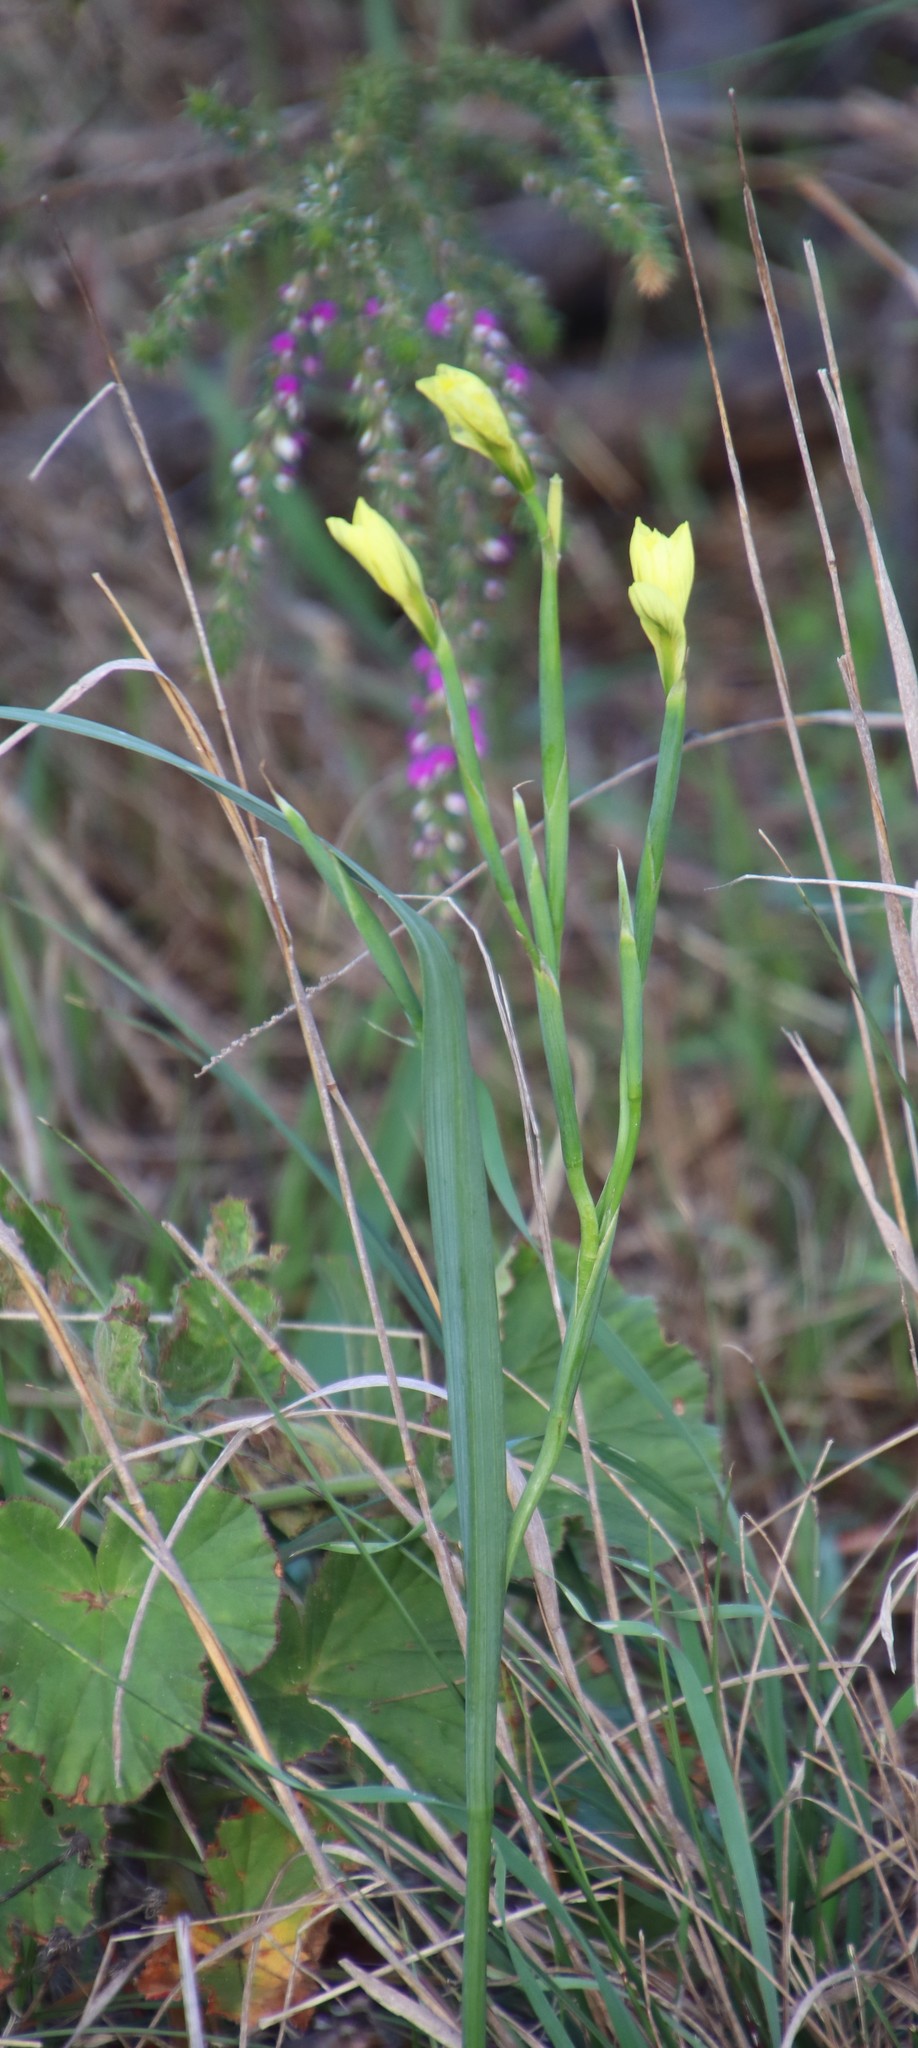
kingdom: Plantae
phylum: Tracheophyta
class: Liliopsida
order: Asparagales
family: Iridaceae
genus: Moraea
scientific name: Moraea collina
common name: Cape-tulip
